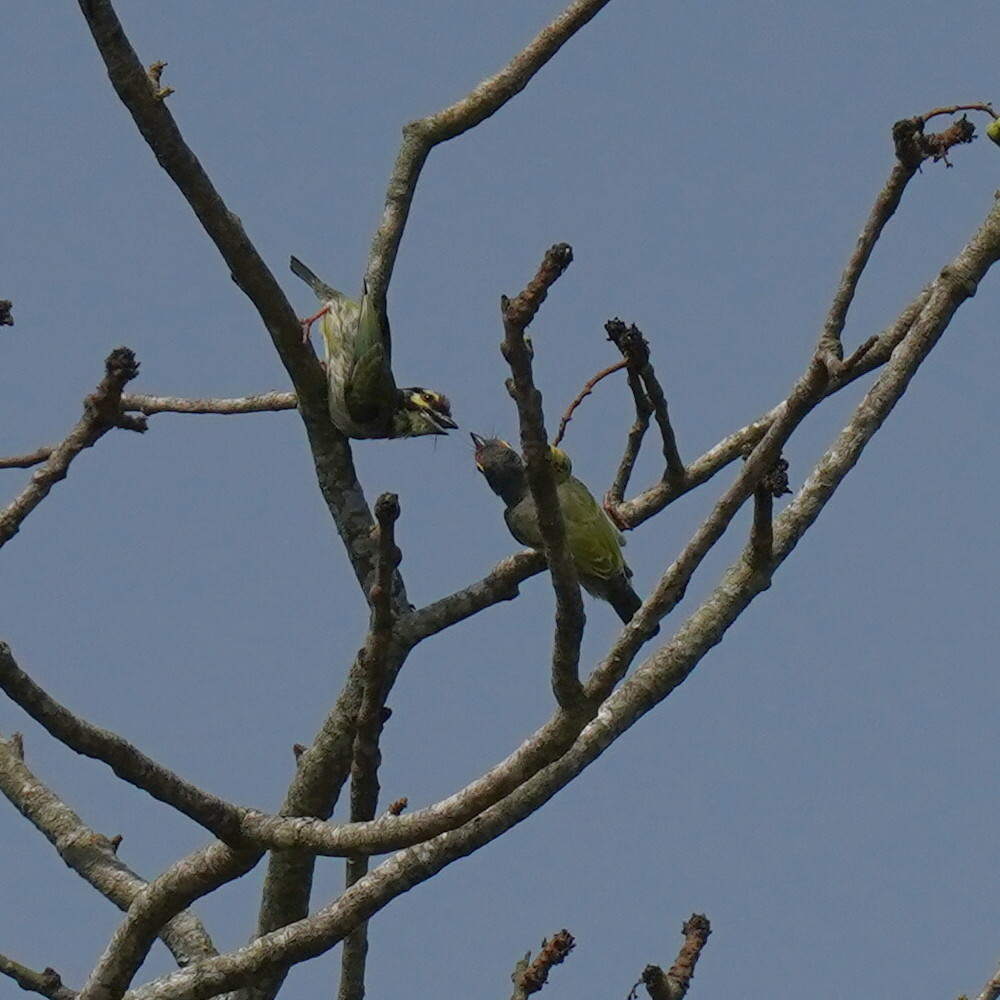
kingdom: Animalia
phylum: Chordata
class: Aves
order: Piciformes
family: Megalaimidae
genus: Psilopogon
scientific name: Psilopogon haemacephalus
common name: Coppersmith barbet
